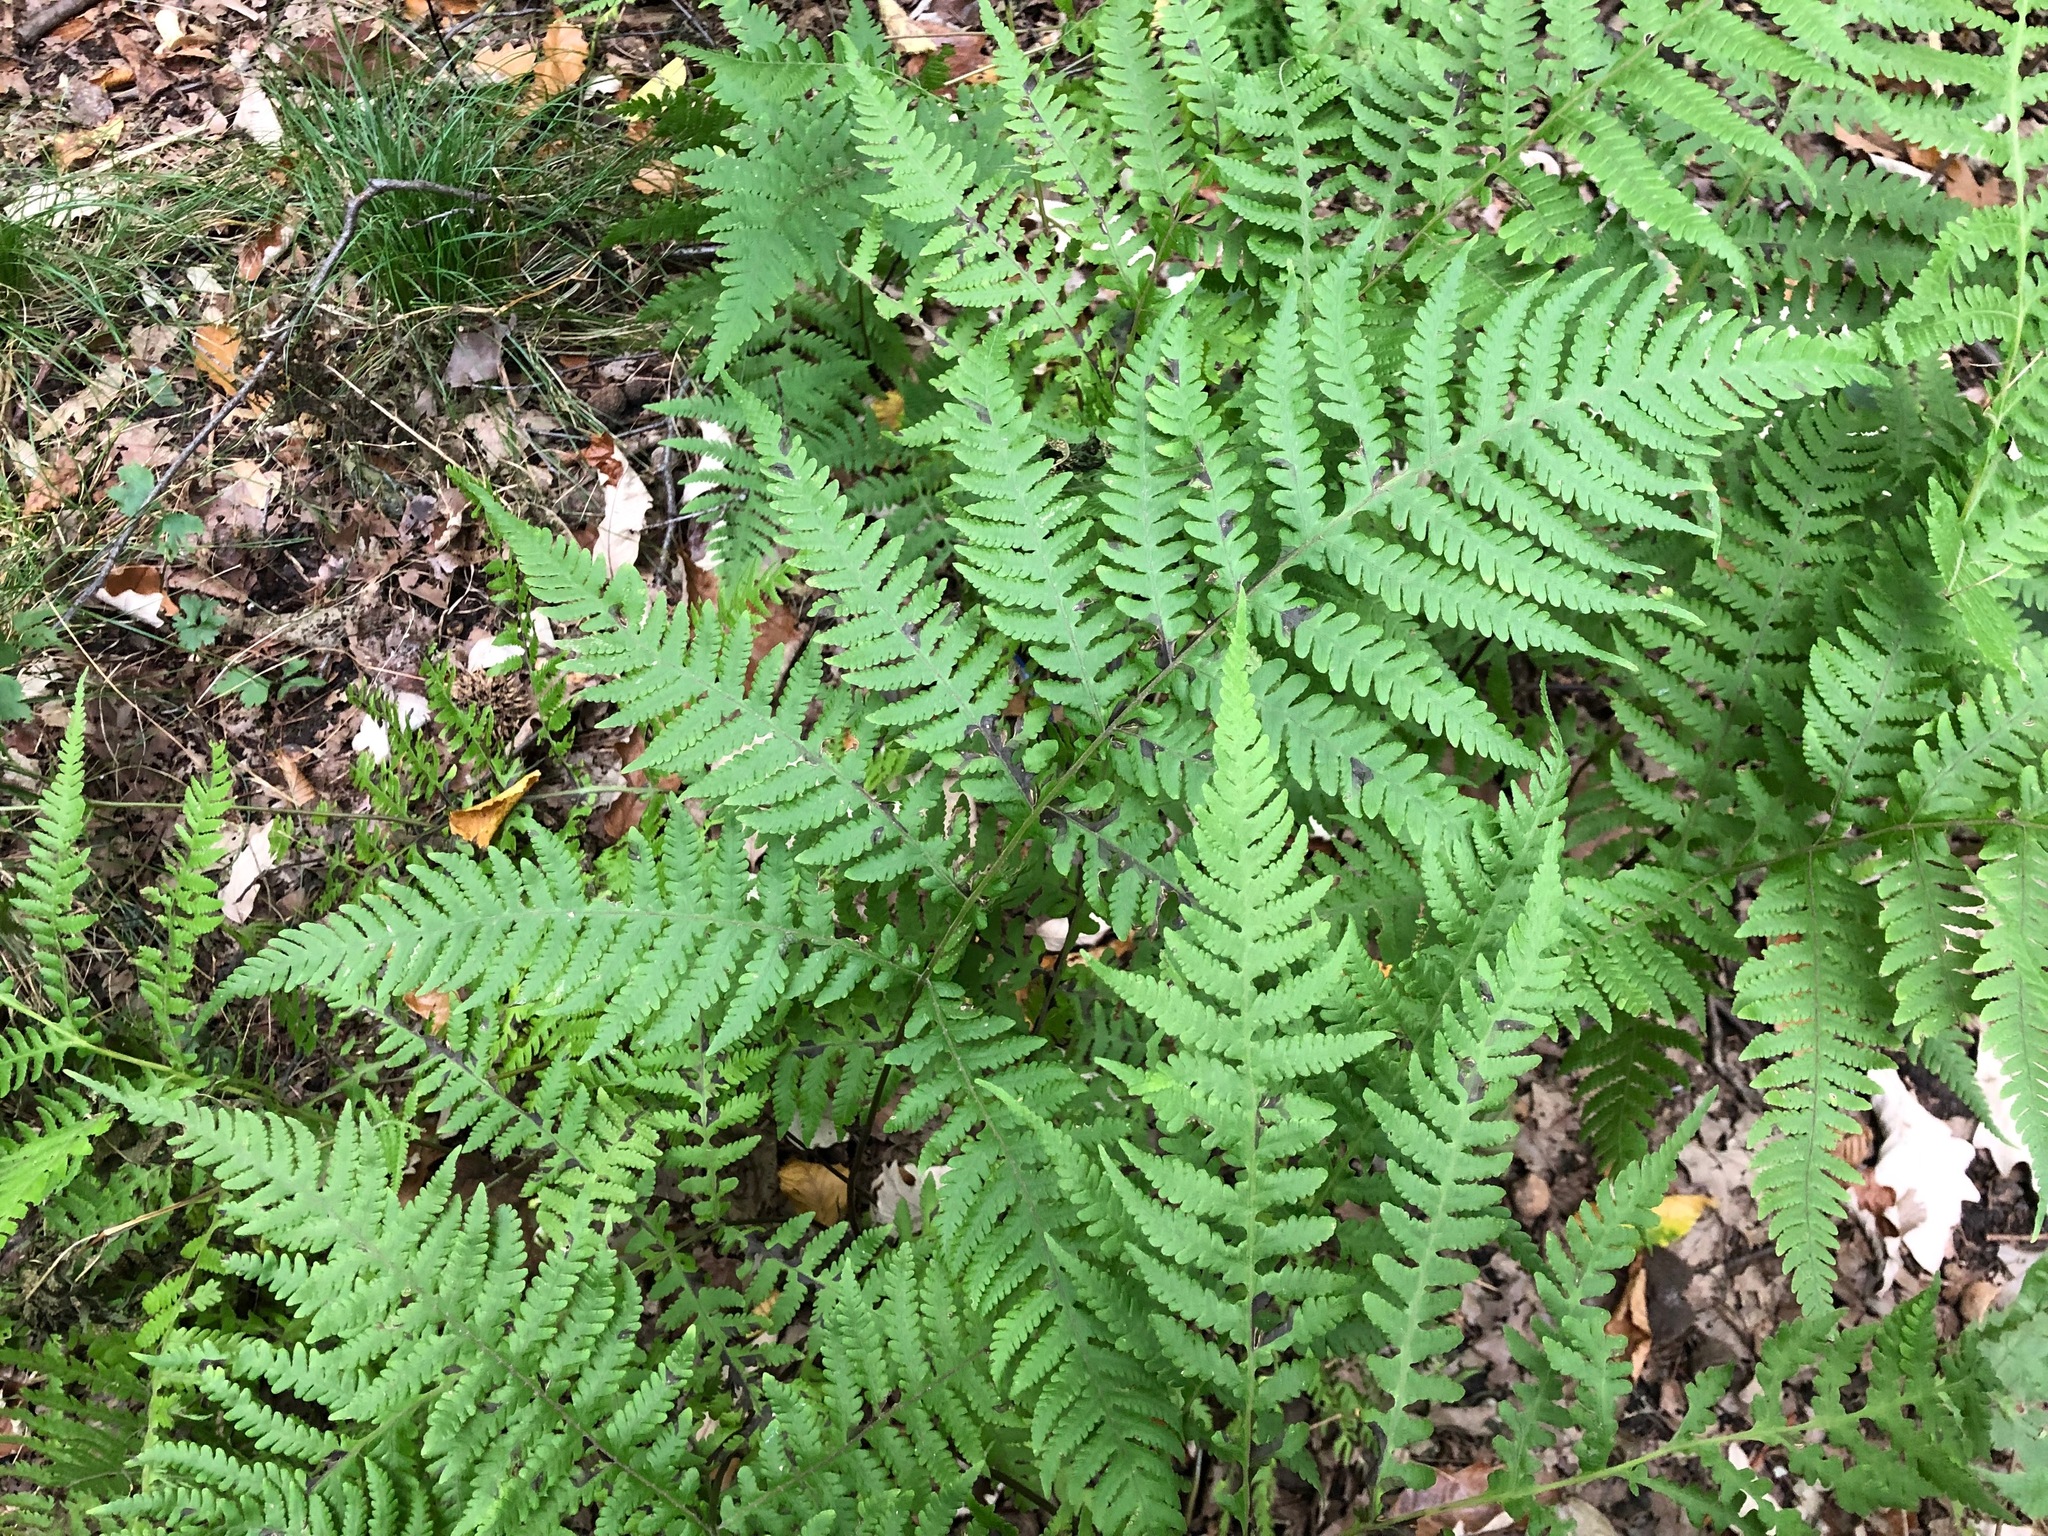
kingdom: Plantae
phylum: Tracheophyta
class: Polypodiopsida
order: Polypodiales
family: Athyriaceae
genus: Deparia
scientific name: Deparia petersenii
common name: Japanese false spleenwort
